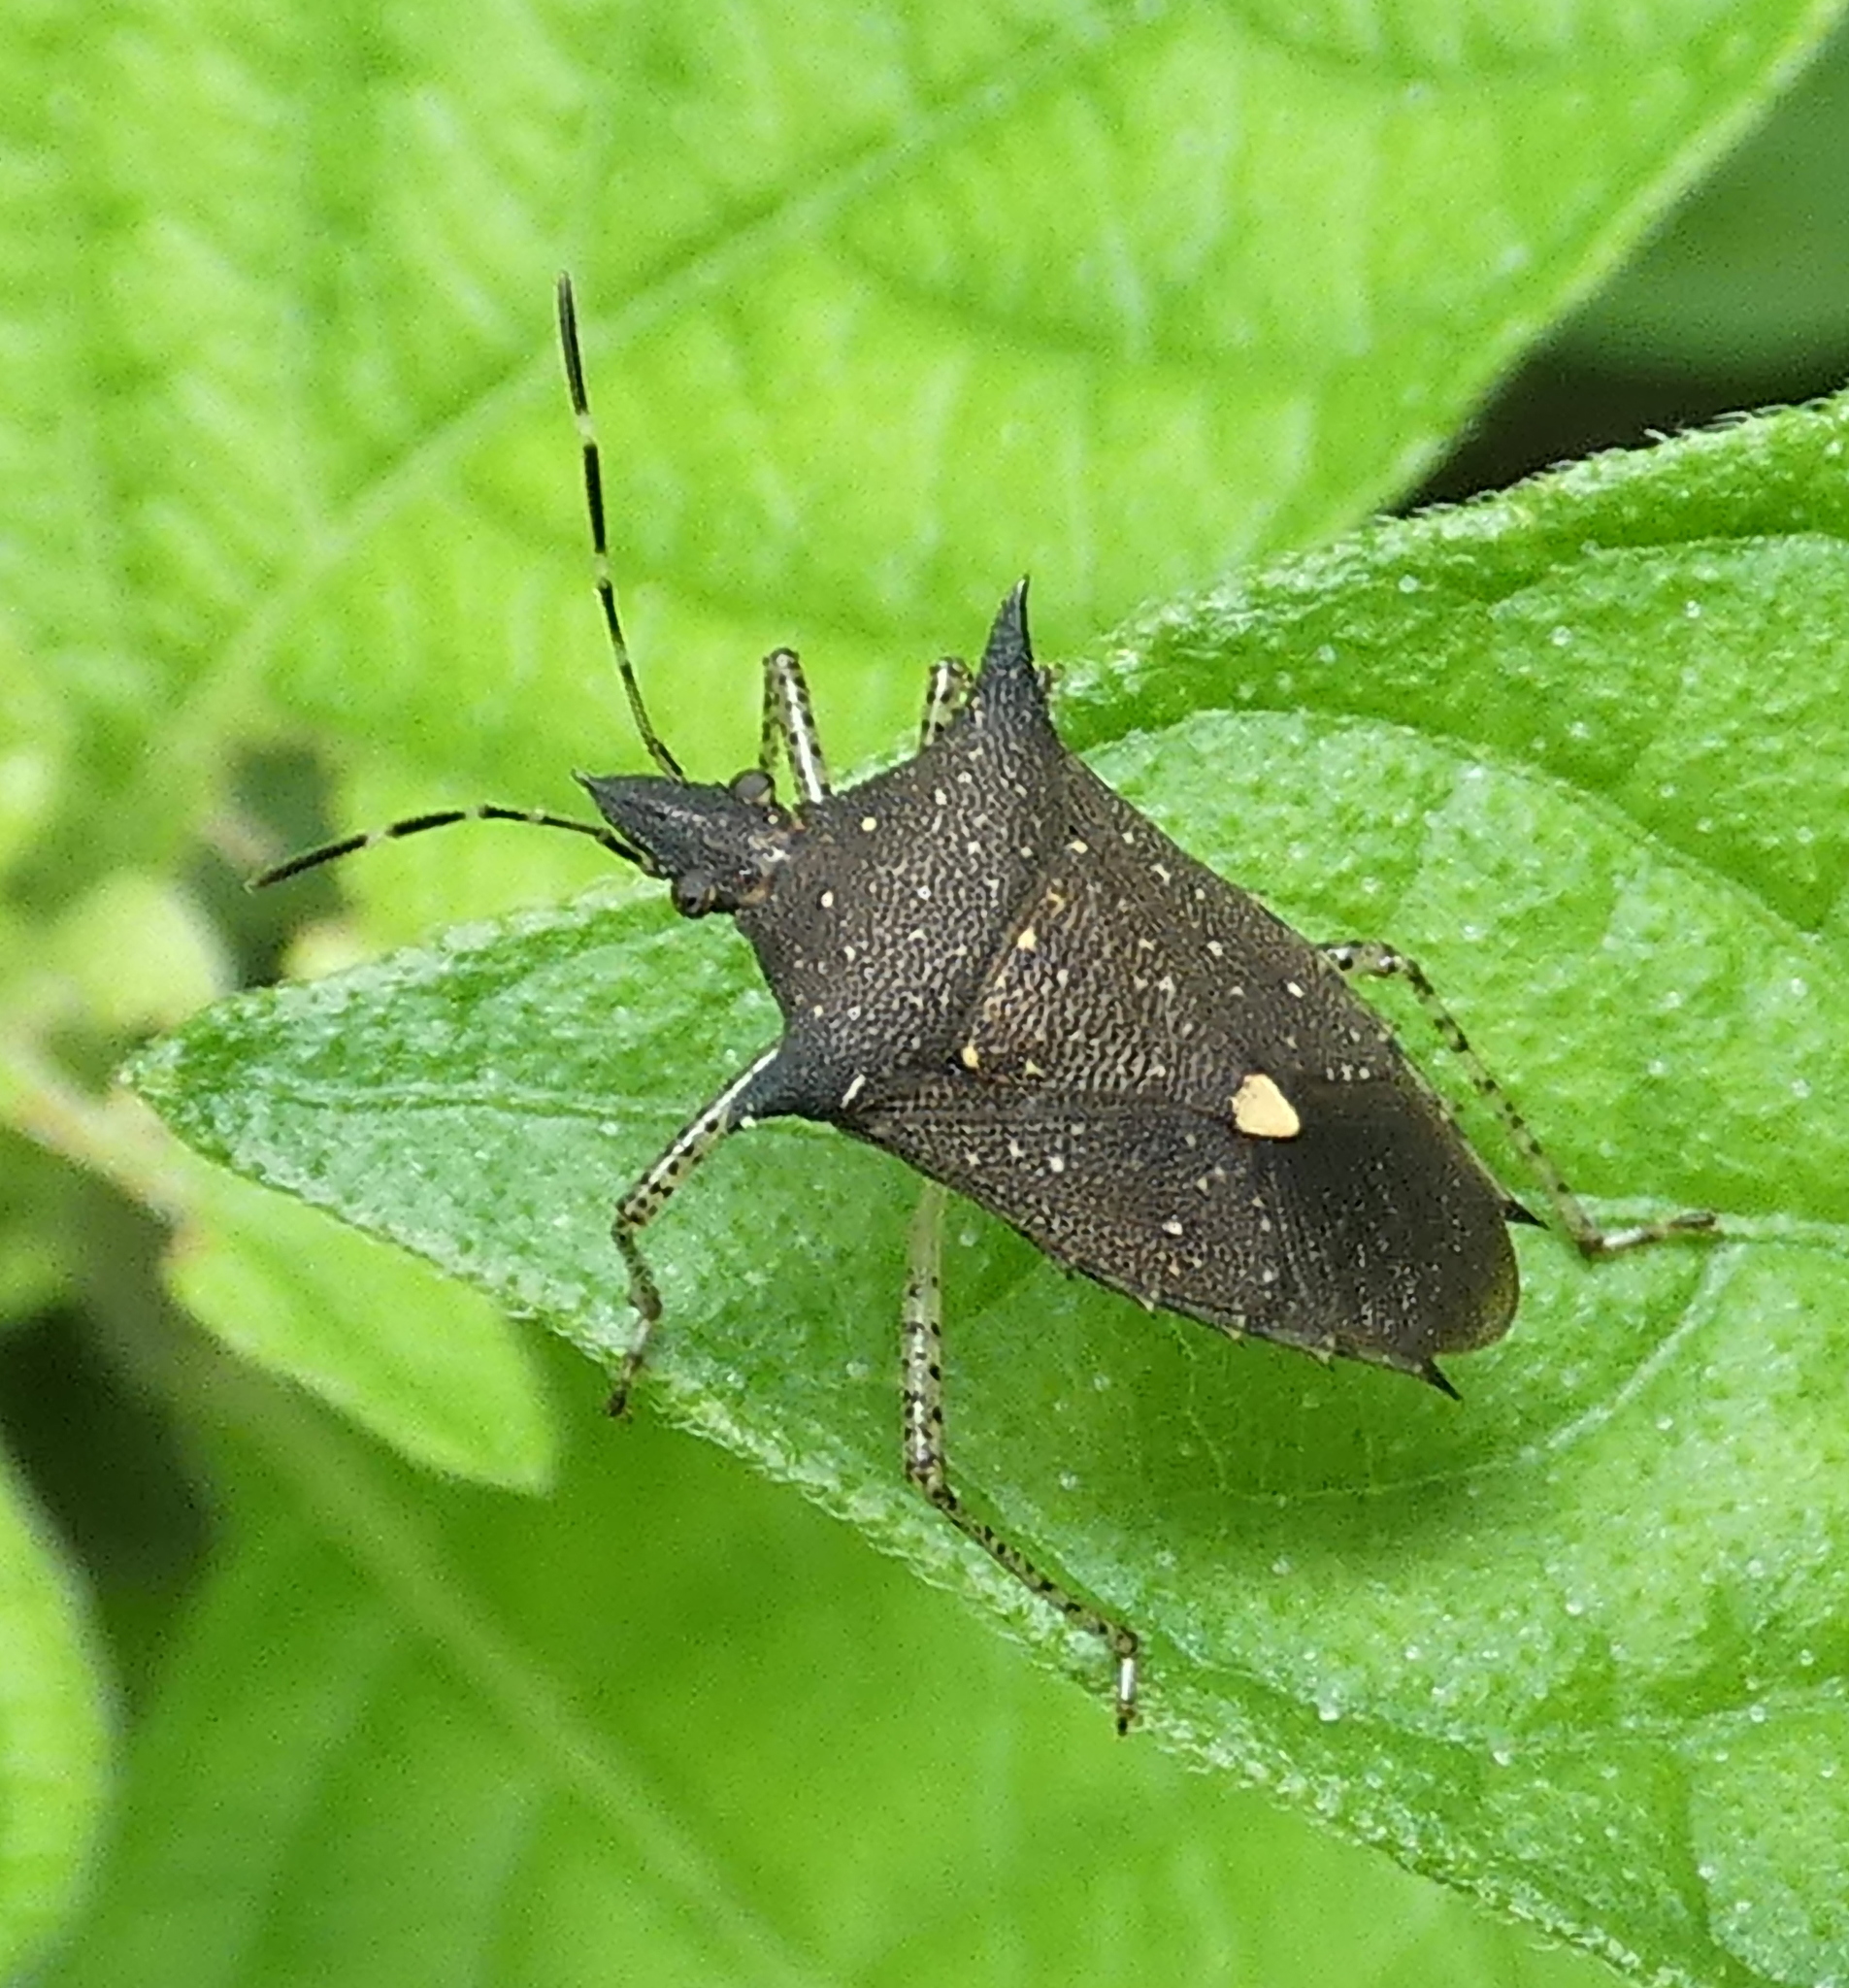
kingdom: Animalia
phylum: Arthropoda
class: Insecta
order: Hemiptera
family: Pentatomidae
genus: Proxys
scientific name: Proxys albopunctulatus
